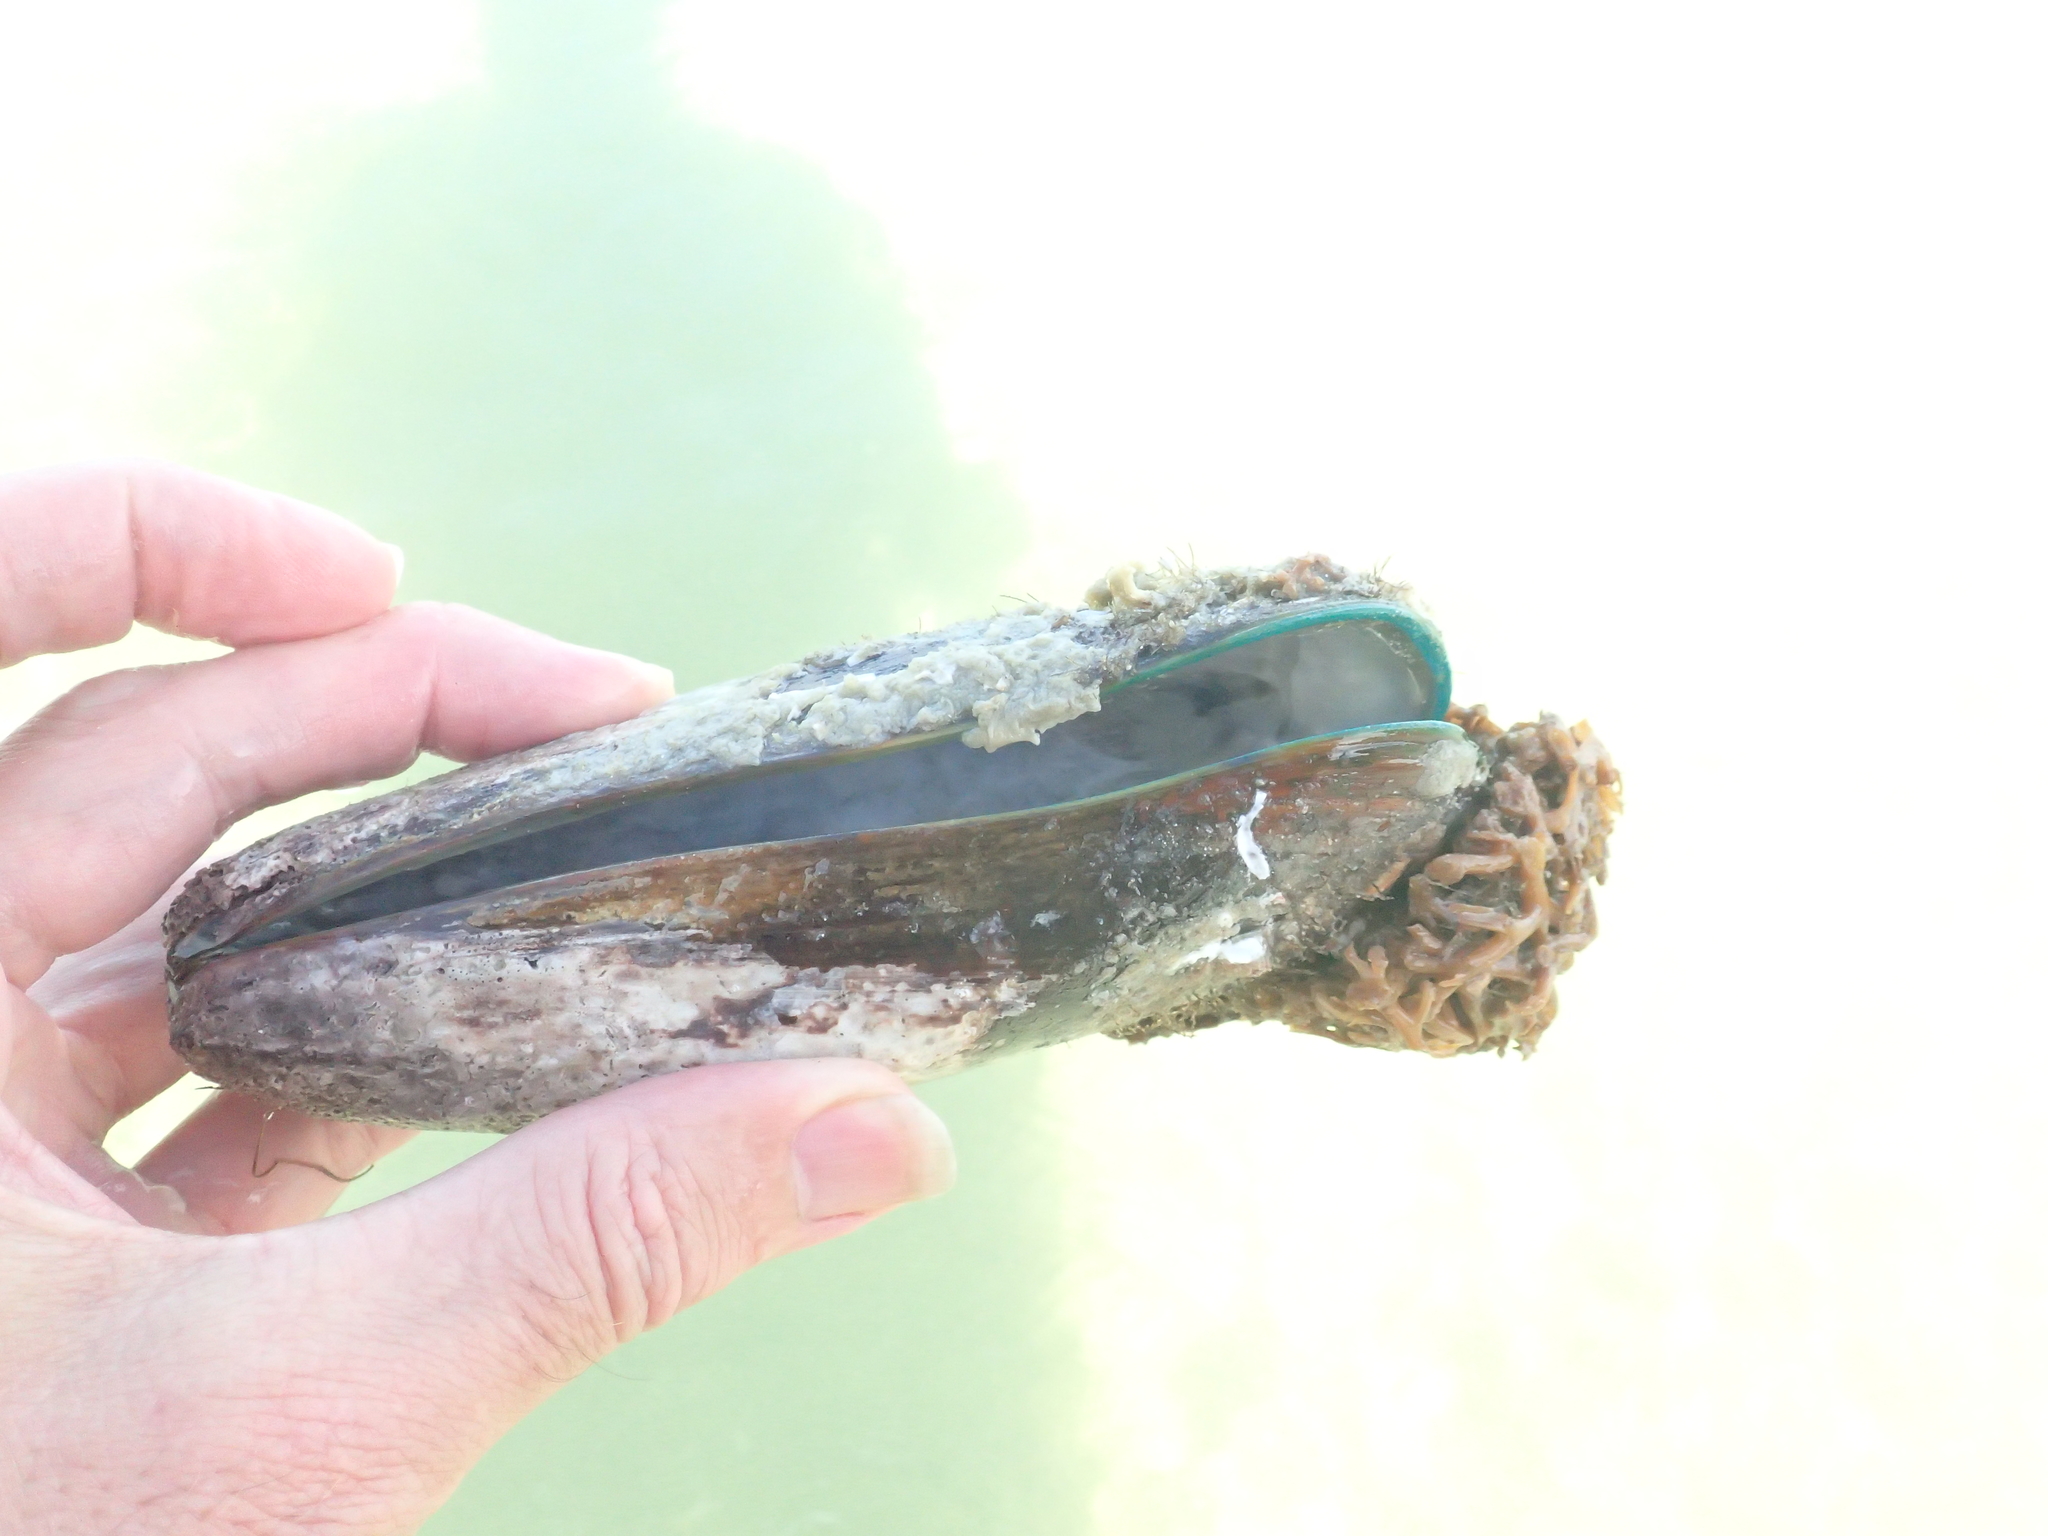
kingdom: Animalia
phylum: Mollusca
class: Bivalvia
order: Mytilida
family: Mytilidae
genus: Perna
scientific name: Perna canaliculus
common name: New zealand greenshelltm
